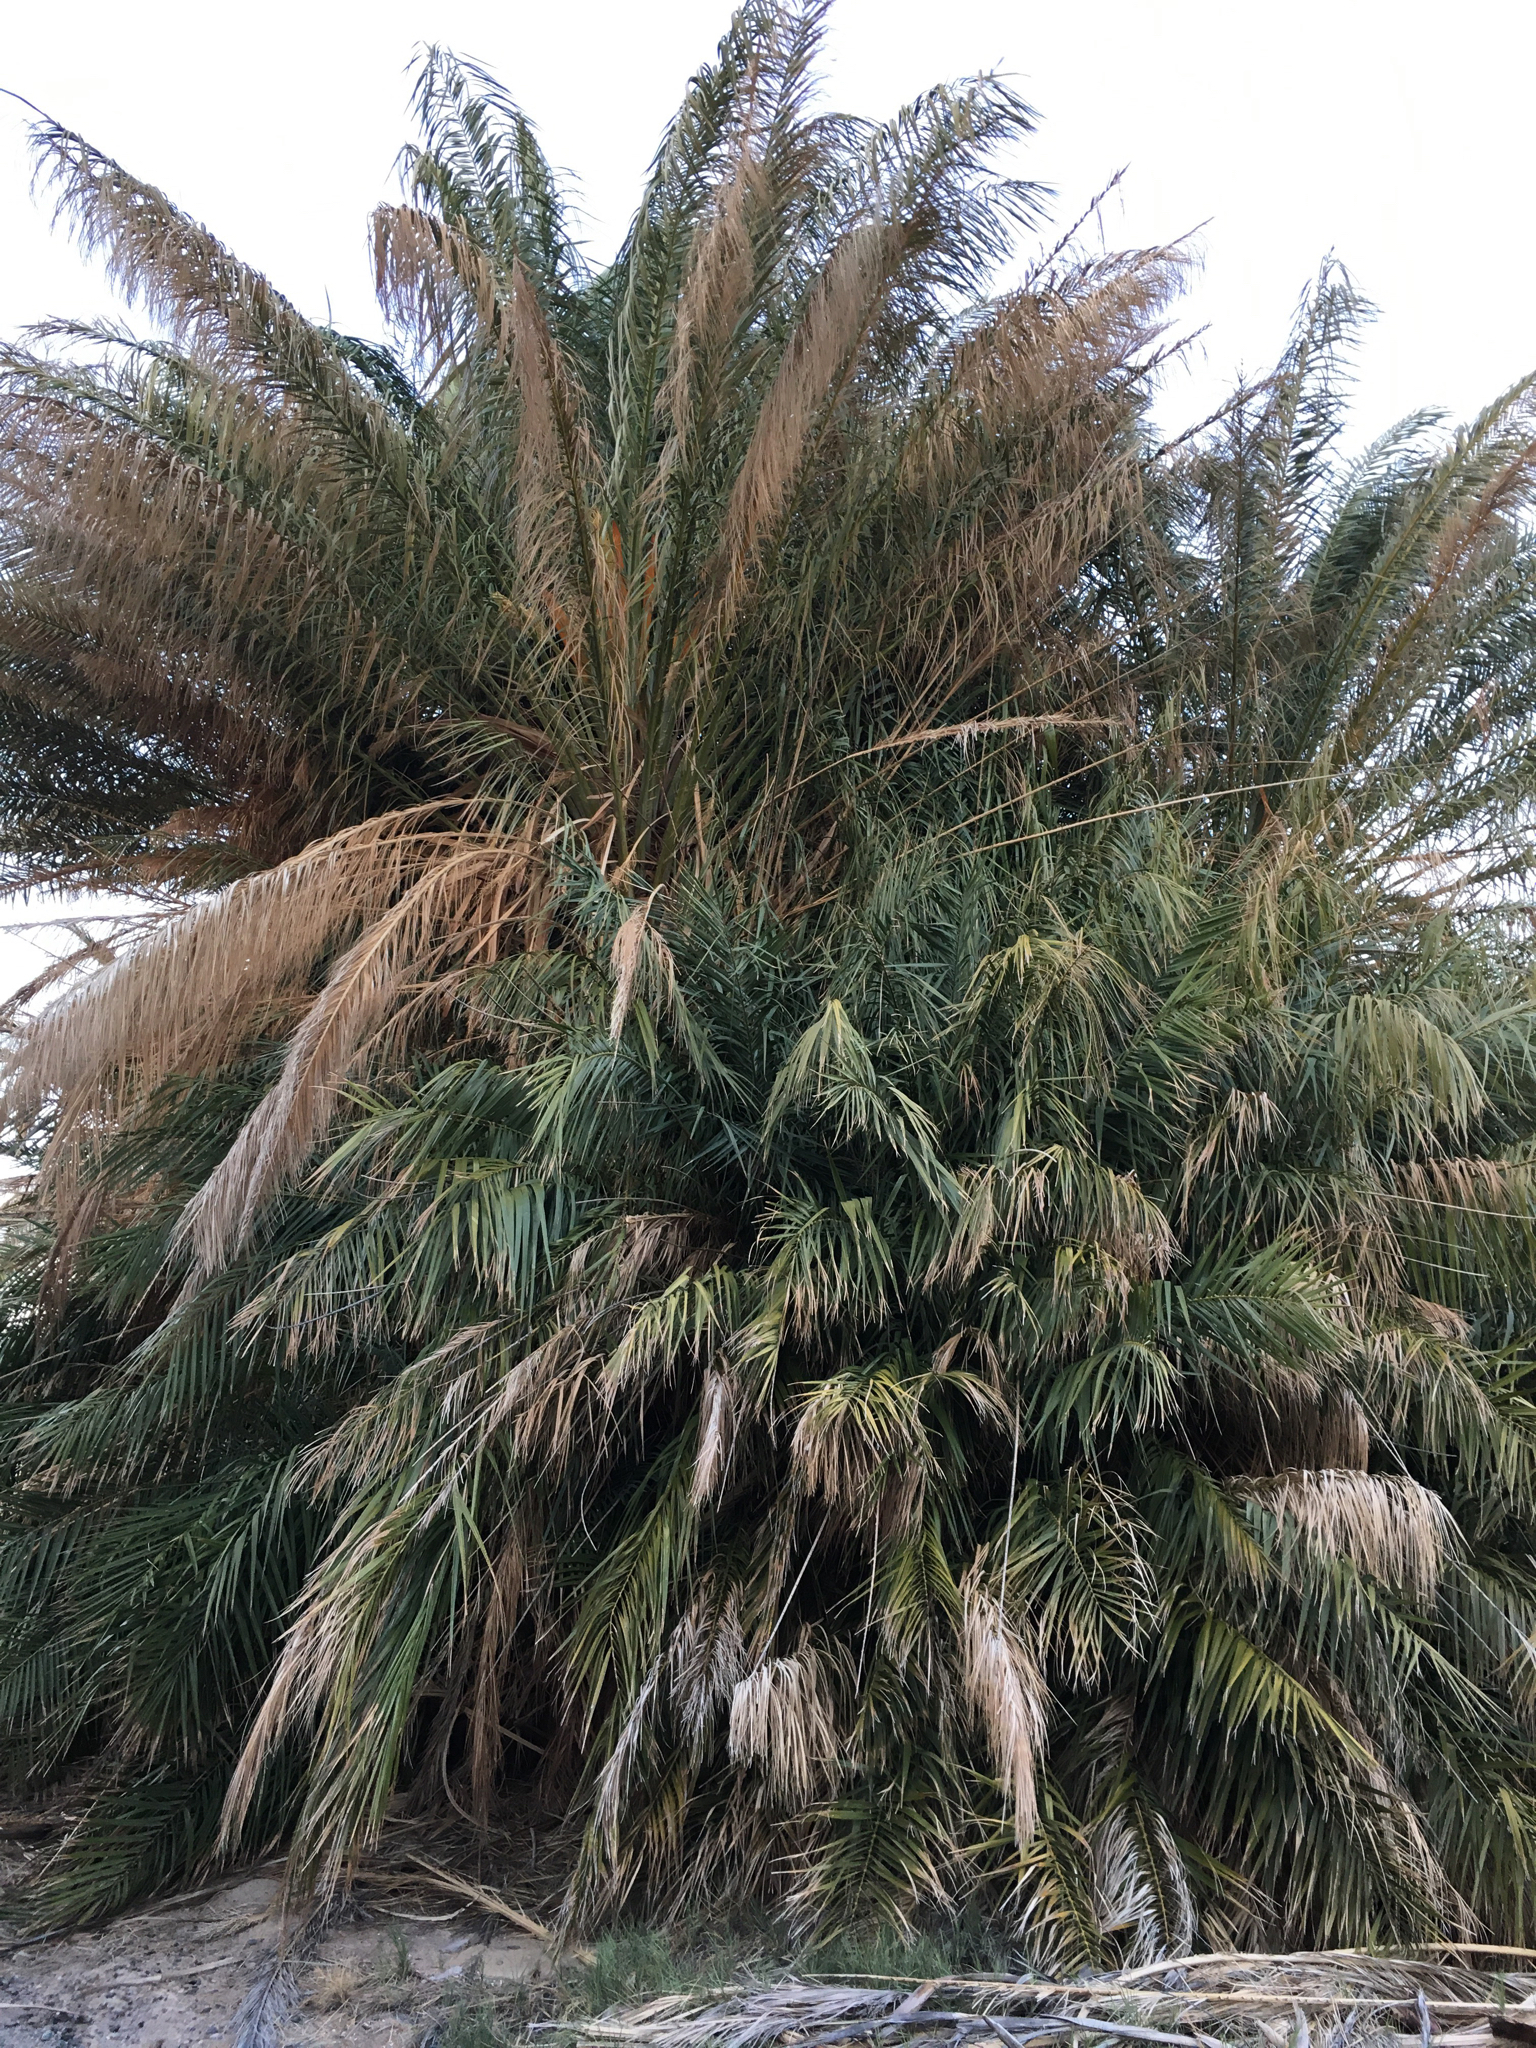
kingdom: Plantae
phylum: Tracheophyta
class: Liliopsida
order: Arecales
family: Arecaceae
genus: Phoenix
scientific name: Phoenix dactylifera
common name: Date palm
